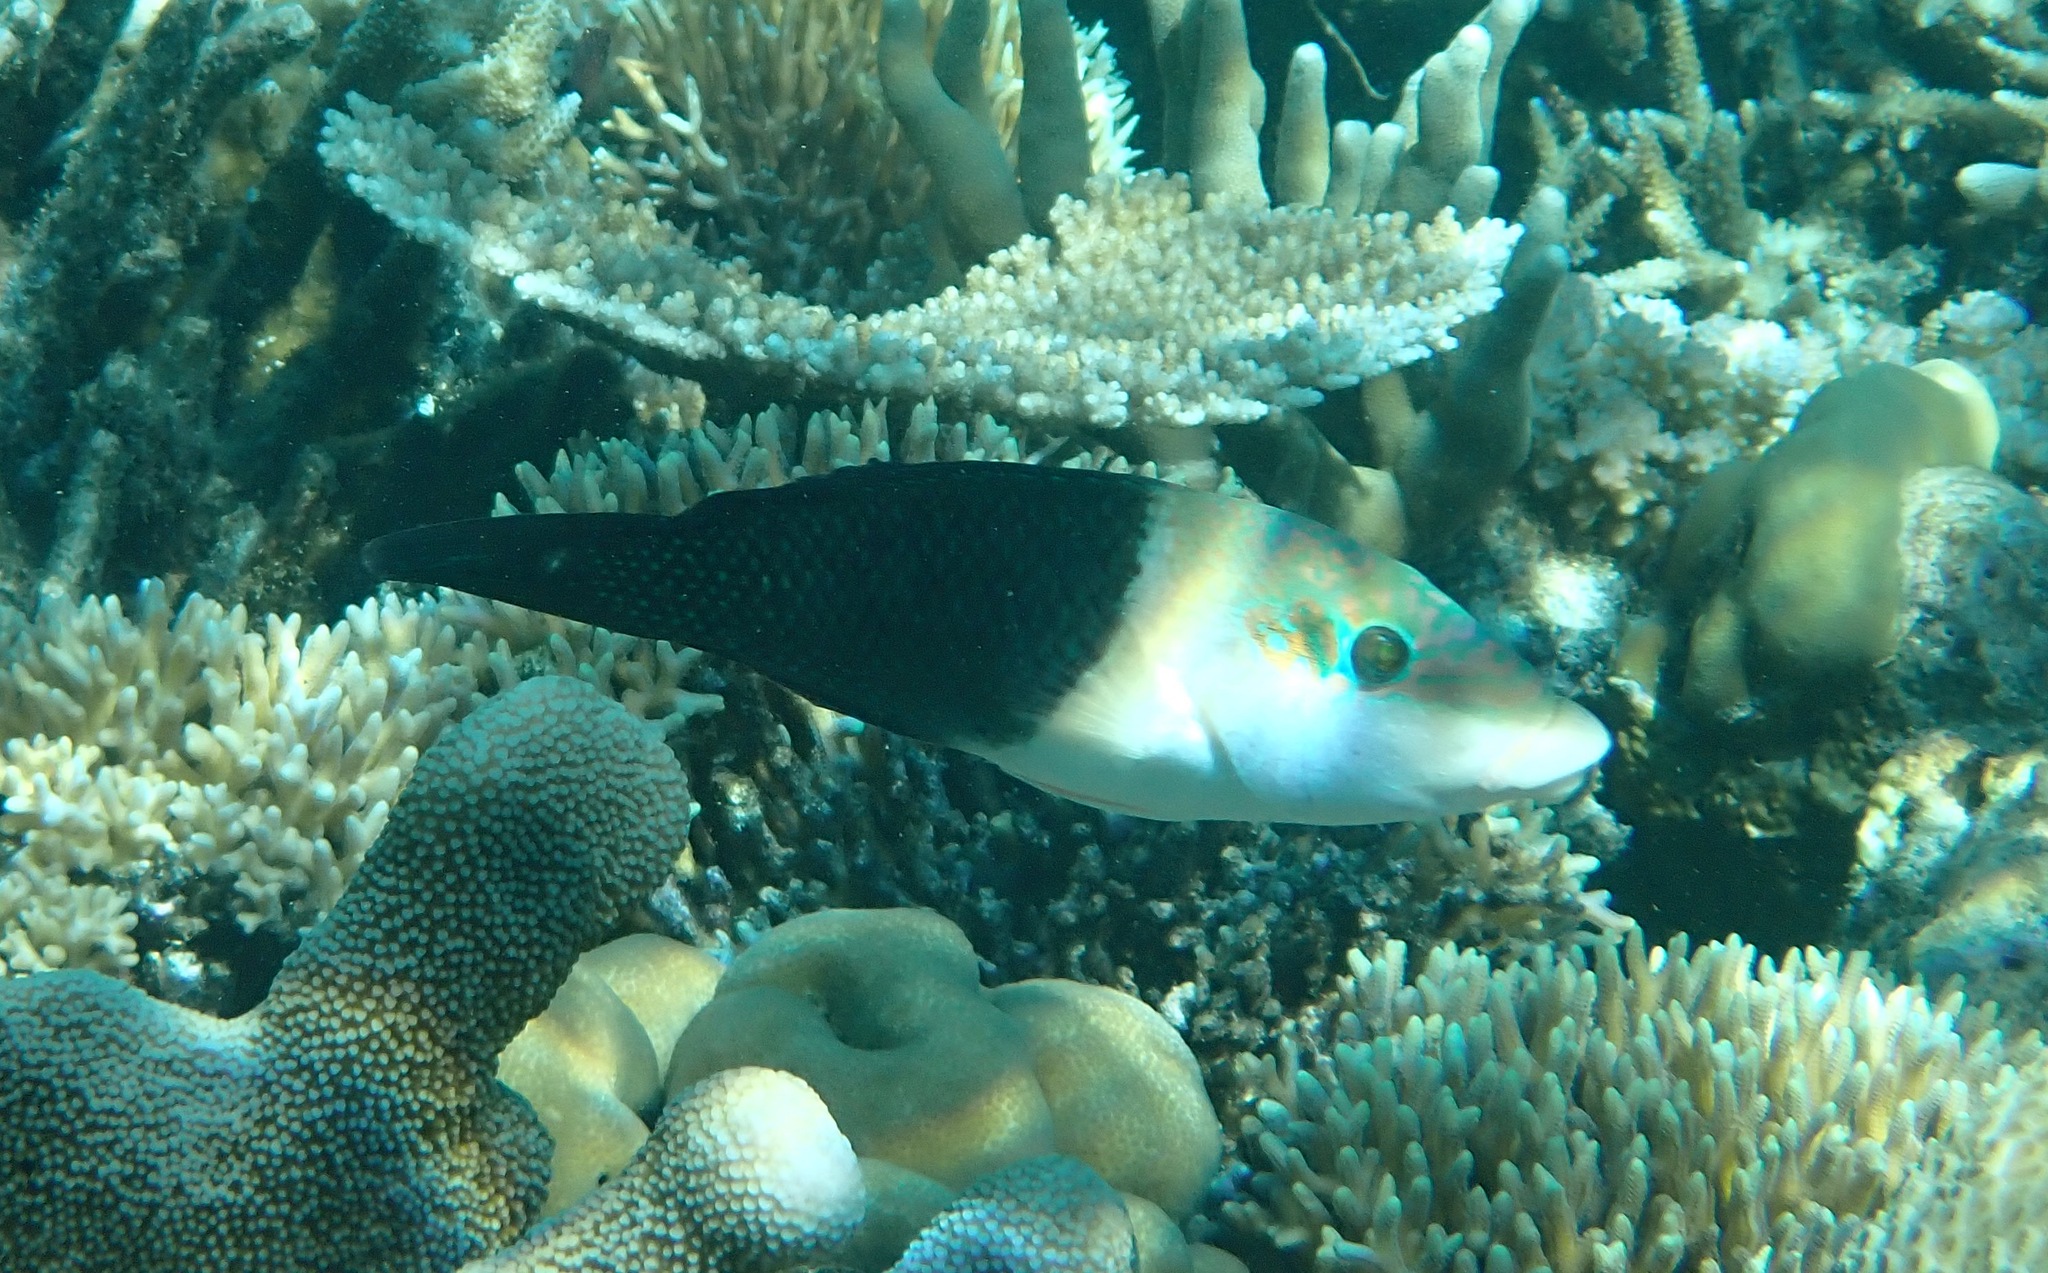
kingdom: Animalia
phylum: Chordata
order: Perciformes
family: Labridae
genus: Hemigymnus
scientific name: Hemigymnus melapterus
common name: Blackeye thicklip
